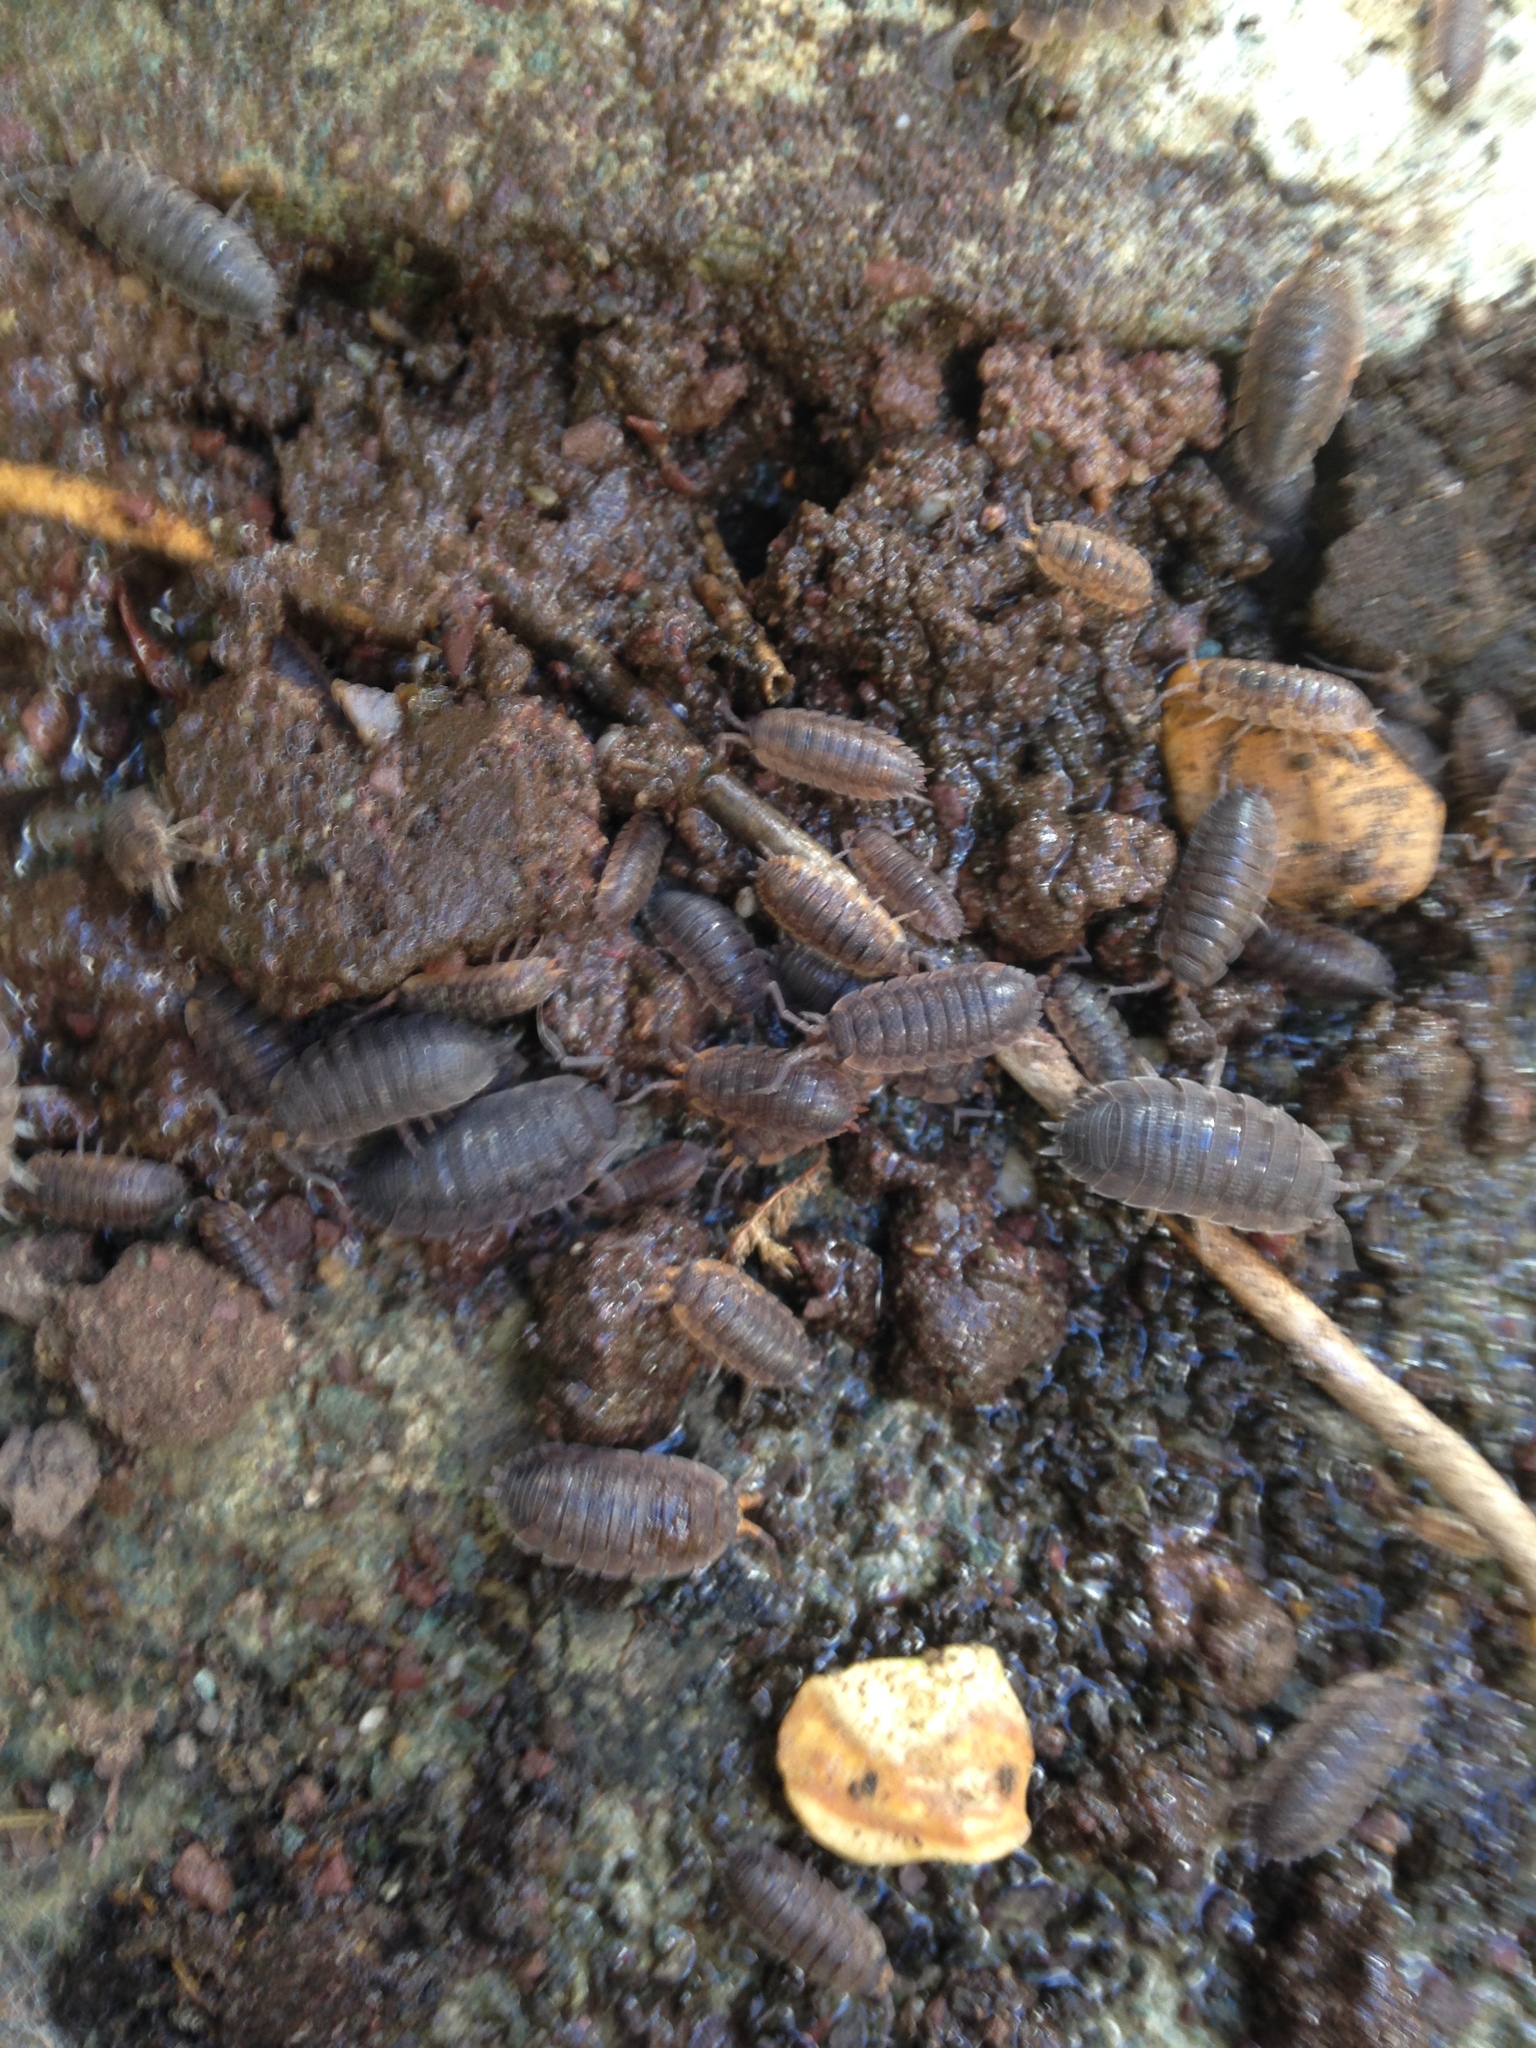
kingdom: Animalia
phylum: Arthropoda
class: Malacostraca
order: Isopoda
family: Porcellionidae
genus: Porcellio
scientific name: Porcellio scaber
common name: Common rough woodlouse
